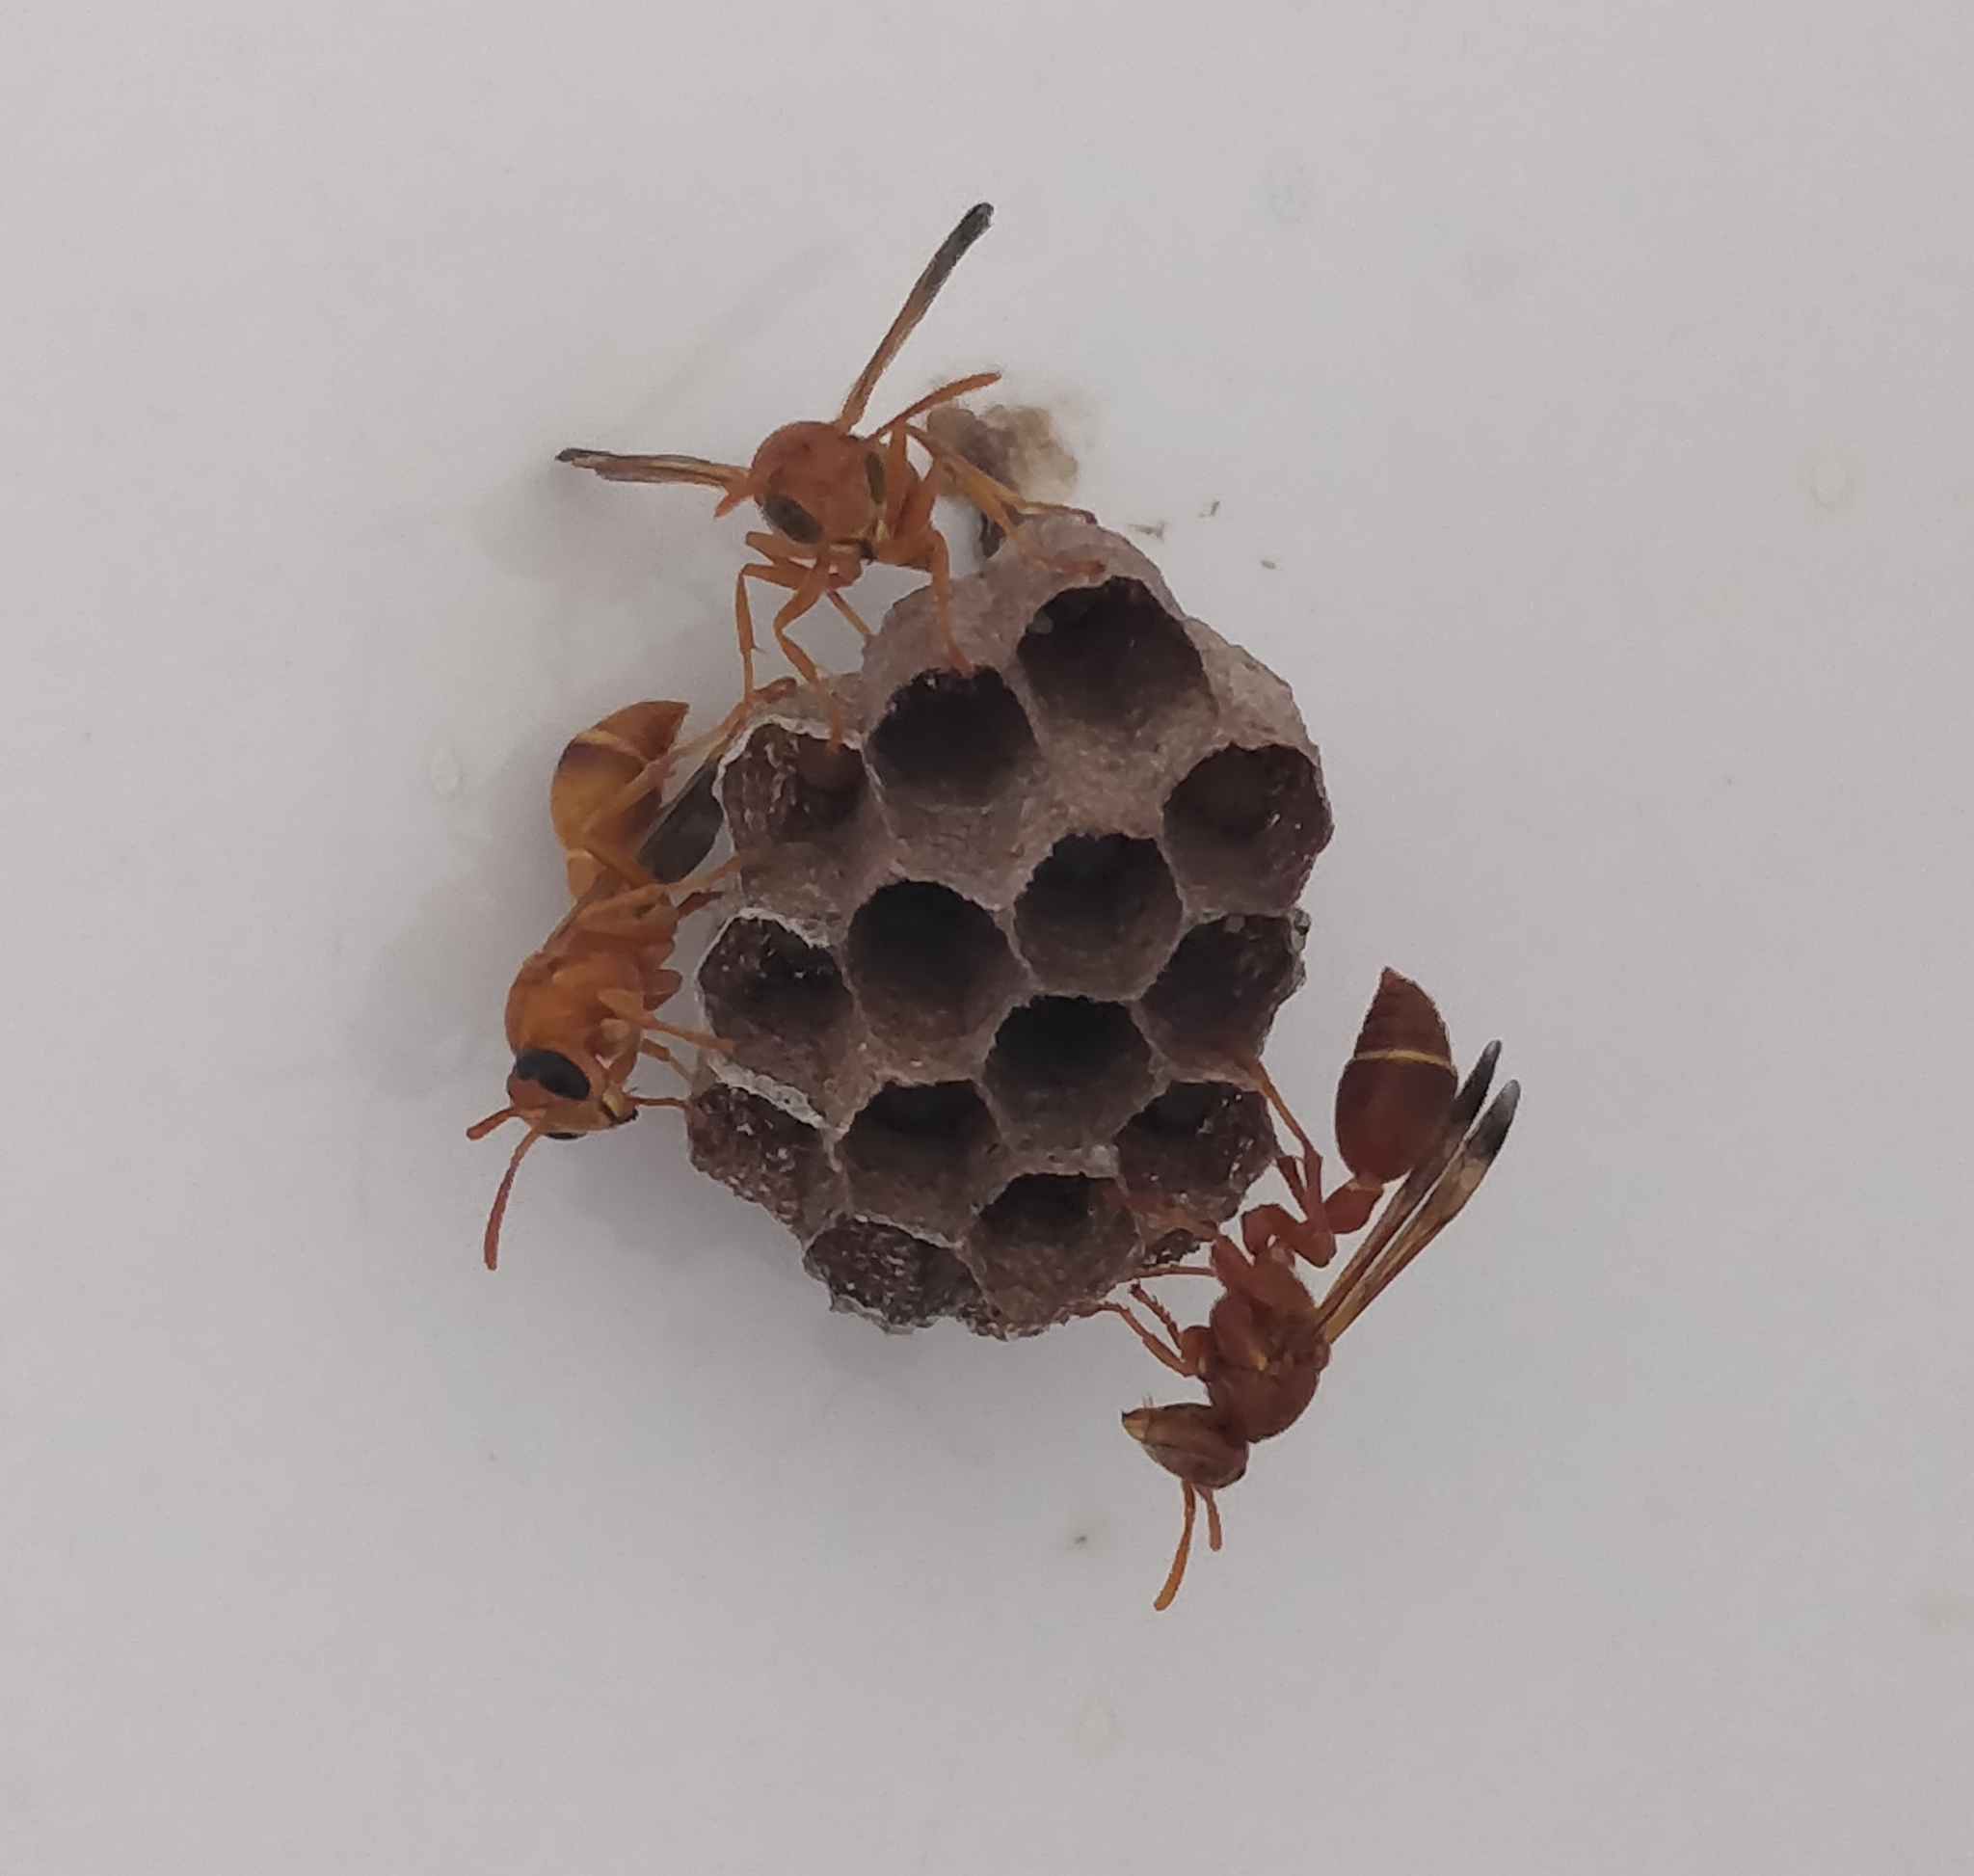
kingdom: Animalia
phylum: Arthropoda
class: Insecta
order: Hymenoptera
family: Vespidae
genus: Ropalidia
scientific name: Ropalidia marginata
